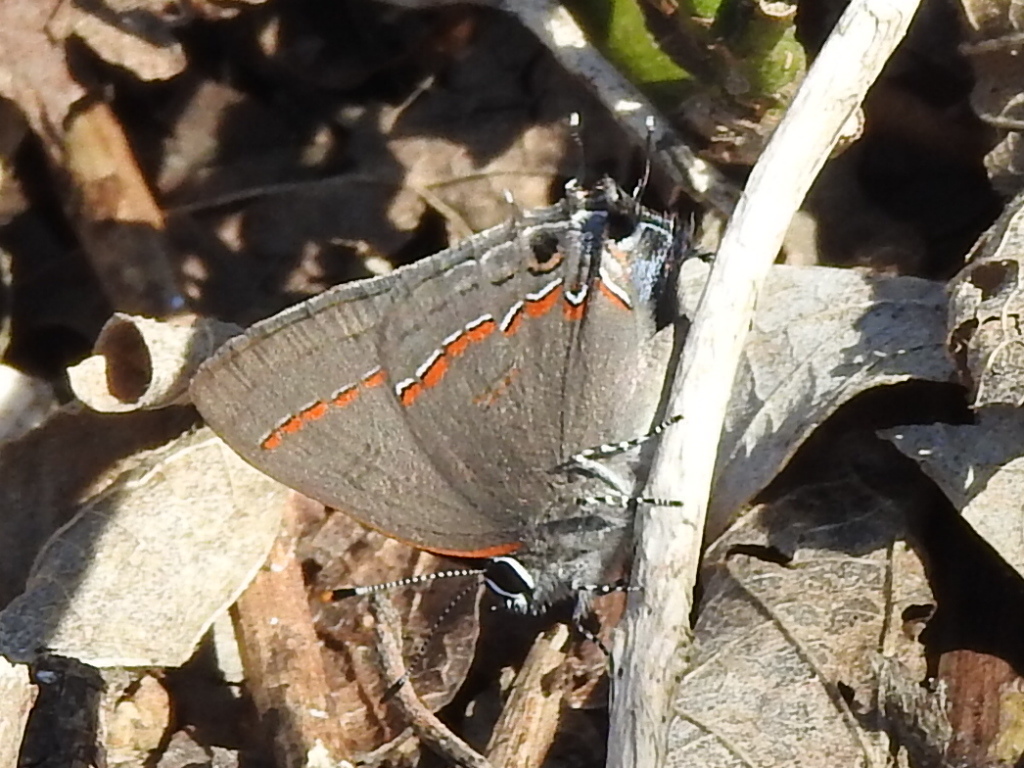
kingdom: Animalia
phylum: Arthropoda
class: Insecta
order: Lepidoptera
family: Lycaenidae
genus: Calycopis
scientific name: Calycopis isobeon
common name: Dusky-blue groundstreak
